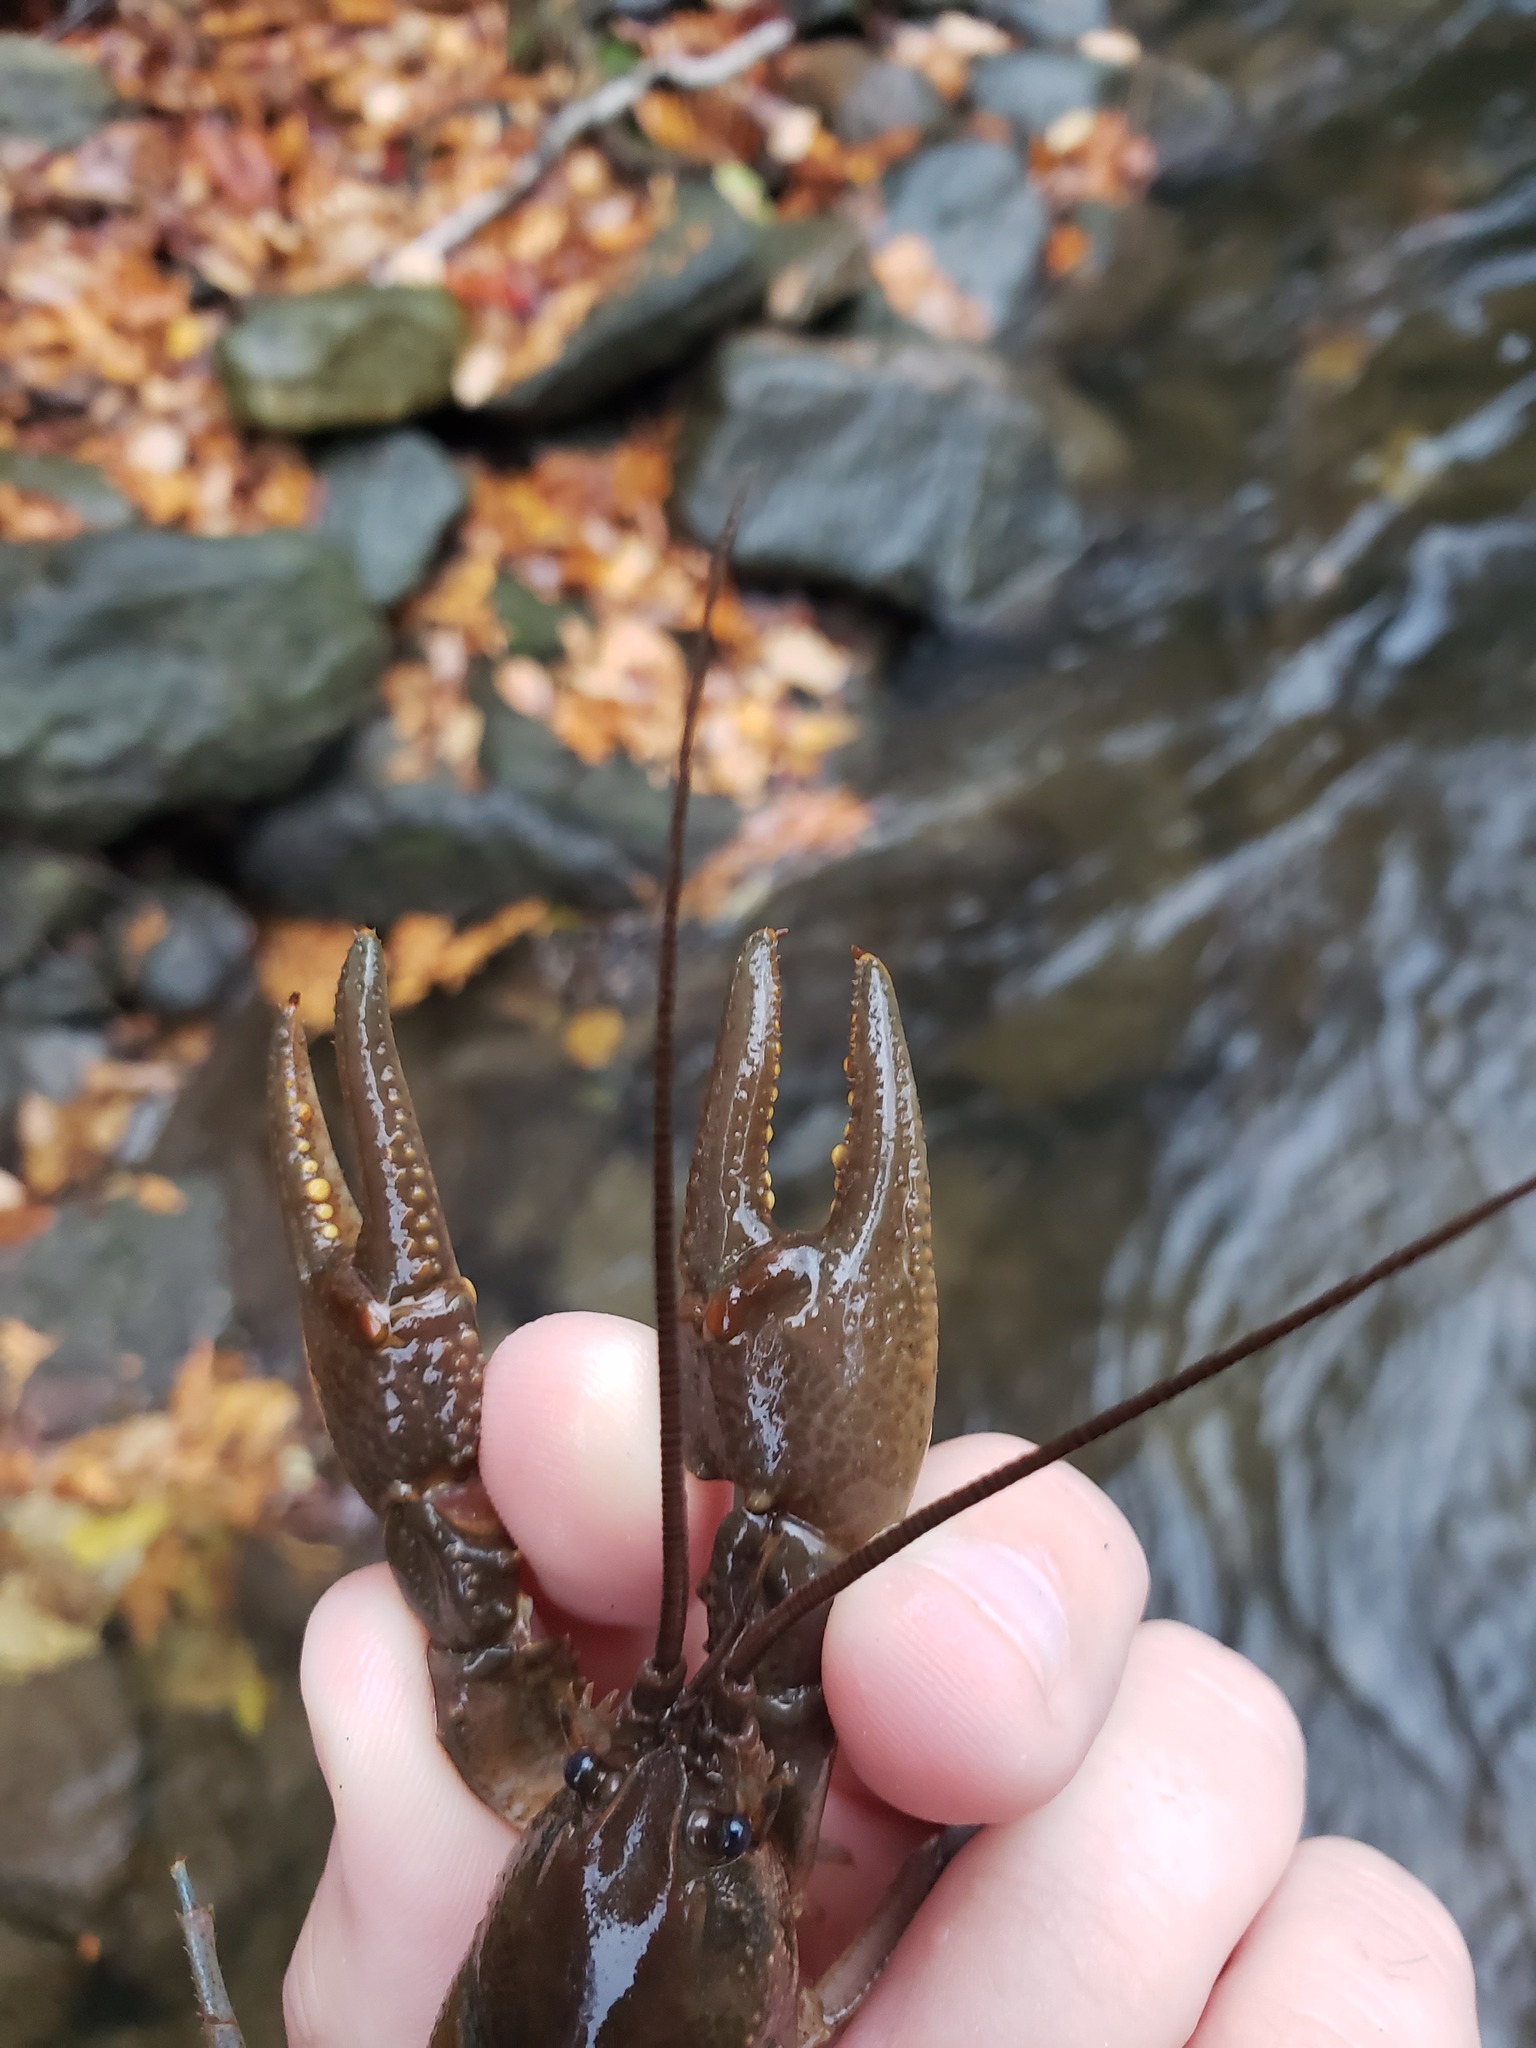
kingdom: Animalia
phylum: Arthropoda
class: Malacostraca
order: Decapoda
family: Cambaridae
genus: Cambarus
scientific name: Cambarus robustus
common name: Big water crayfish
